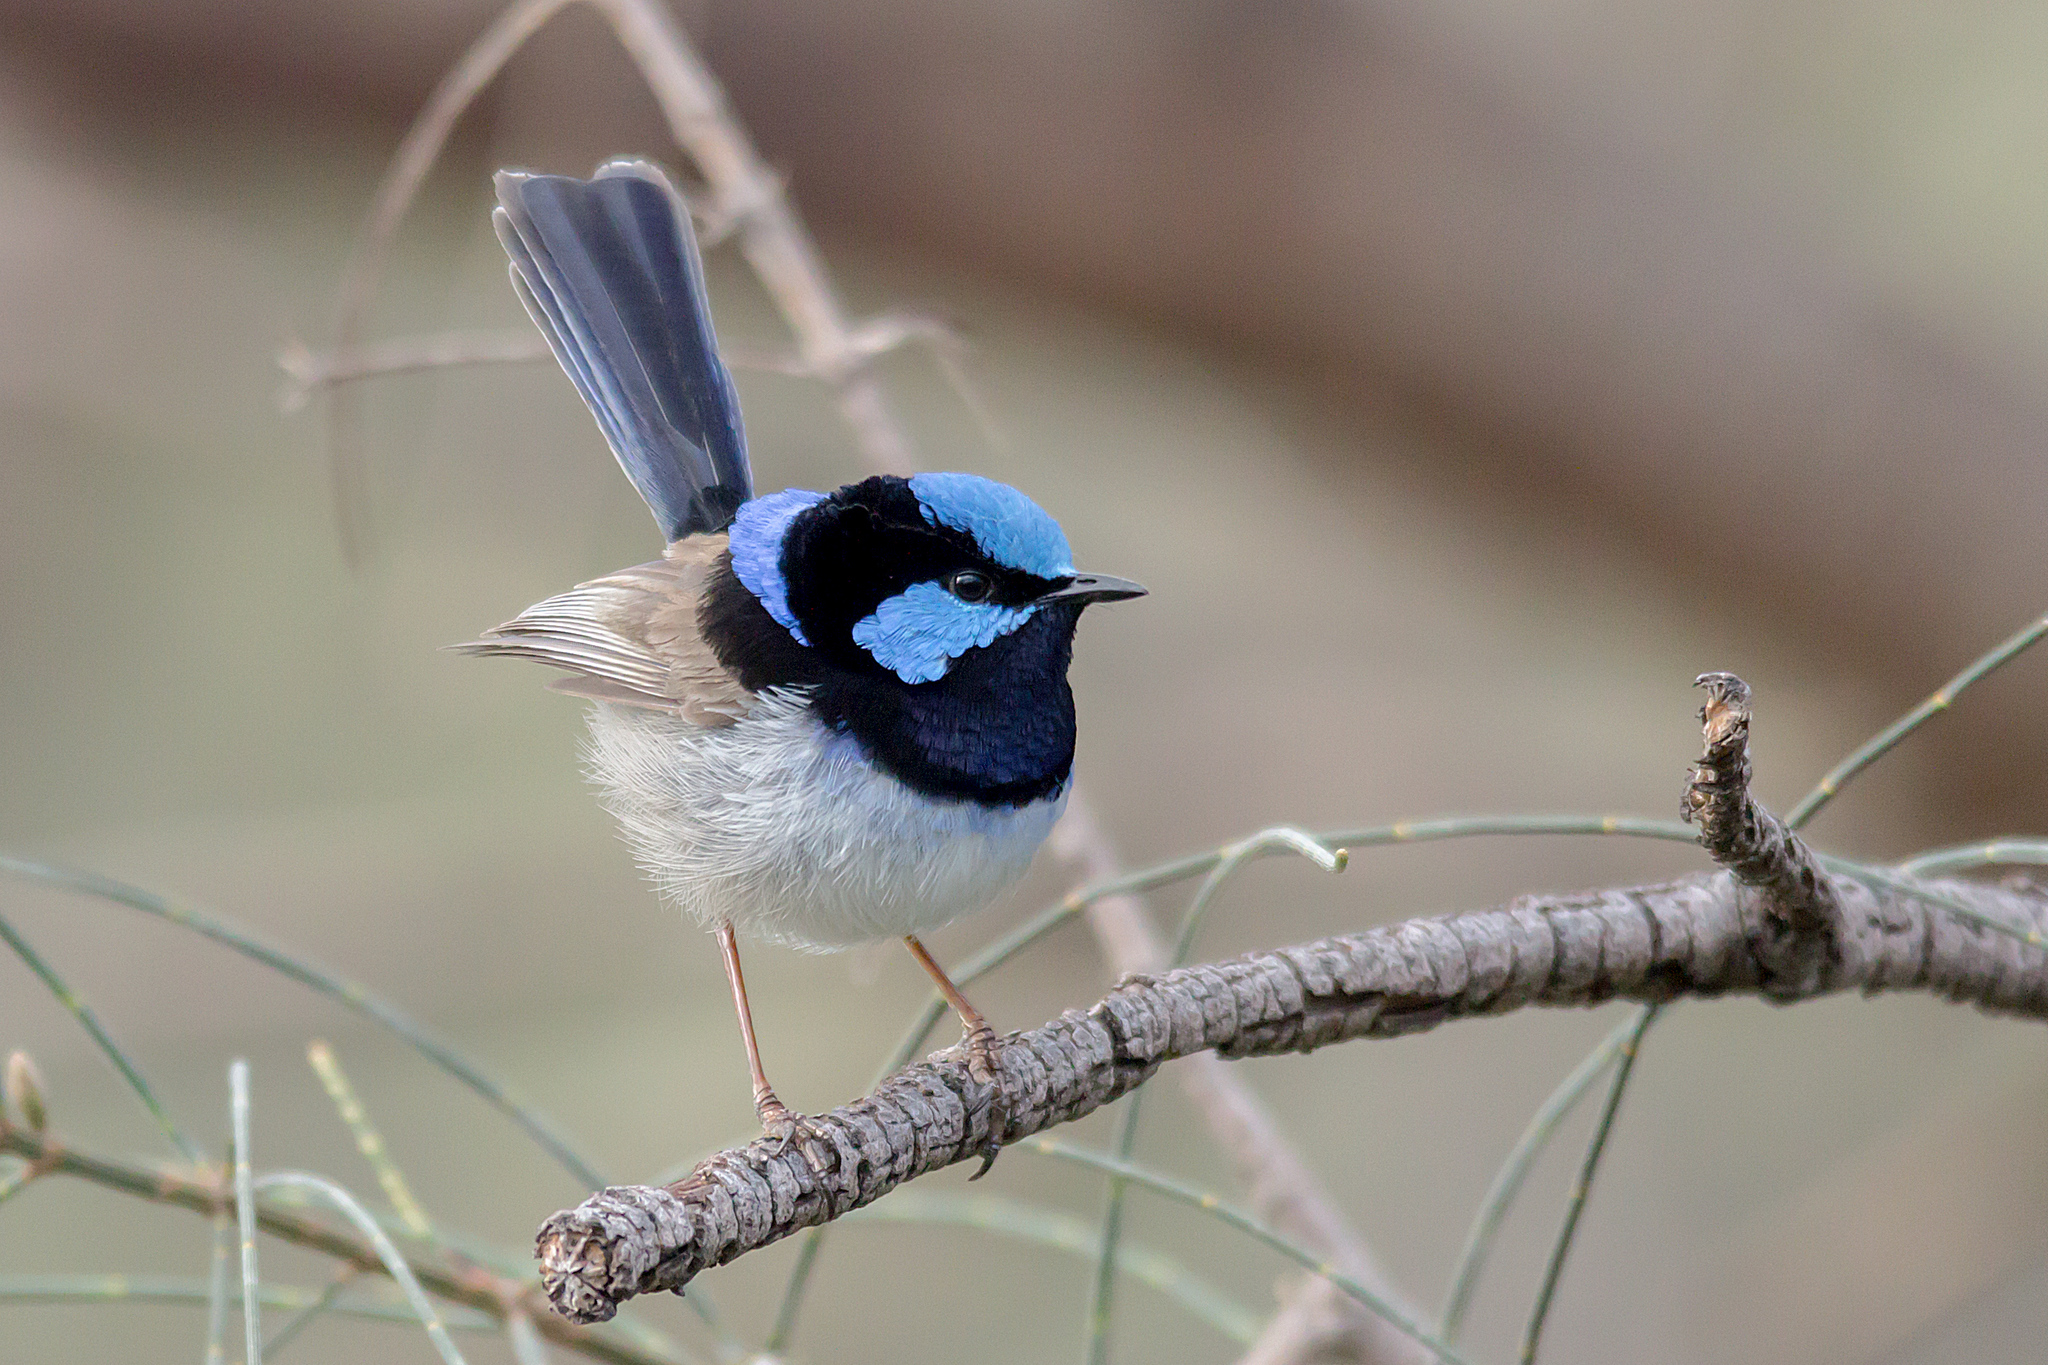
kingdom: Animalia
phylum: Chordata
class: Aves
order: Passeriformes
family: Maluridae
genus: Malurus
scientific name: Malurus cyaneus
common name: Superb fairywren
